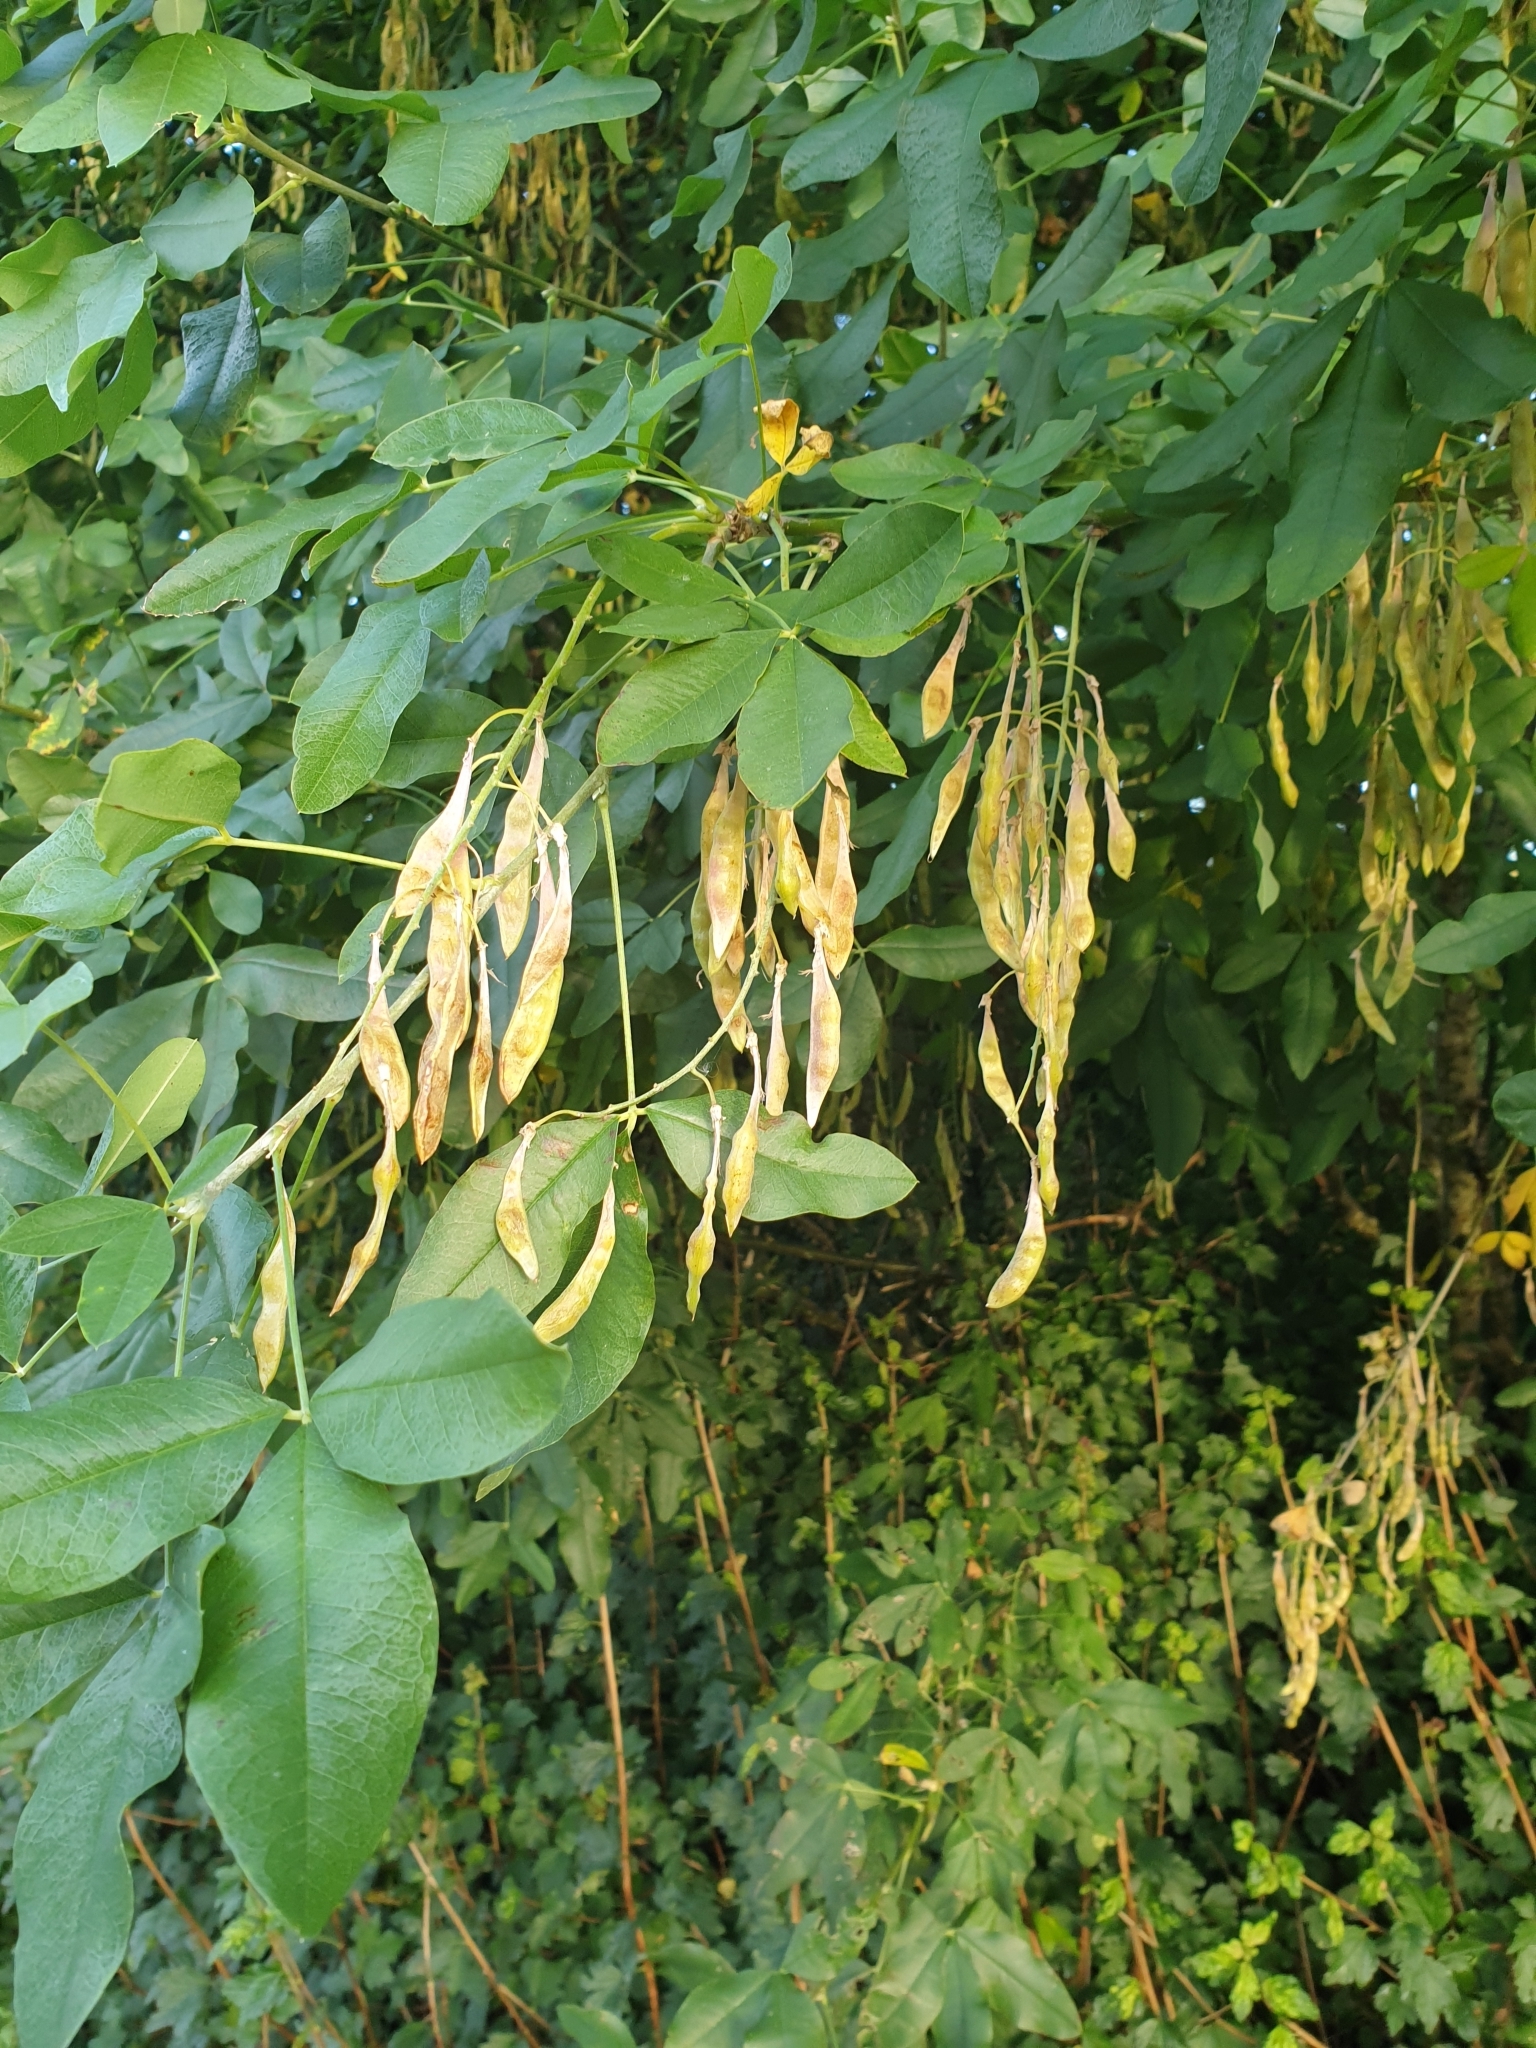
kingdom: Plantae
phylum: Tracheophyta
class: Magnoliopsida
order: Fabales
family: Fabaceae
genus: Laburnum
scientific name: Laburnum anagyroides
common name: Laburnum
